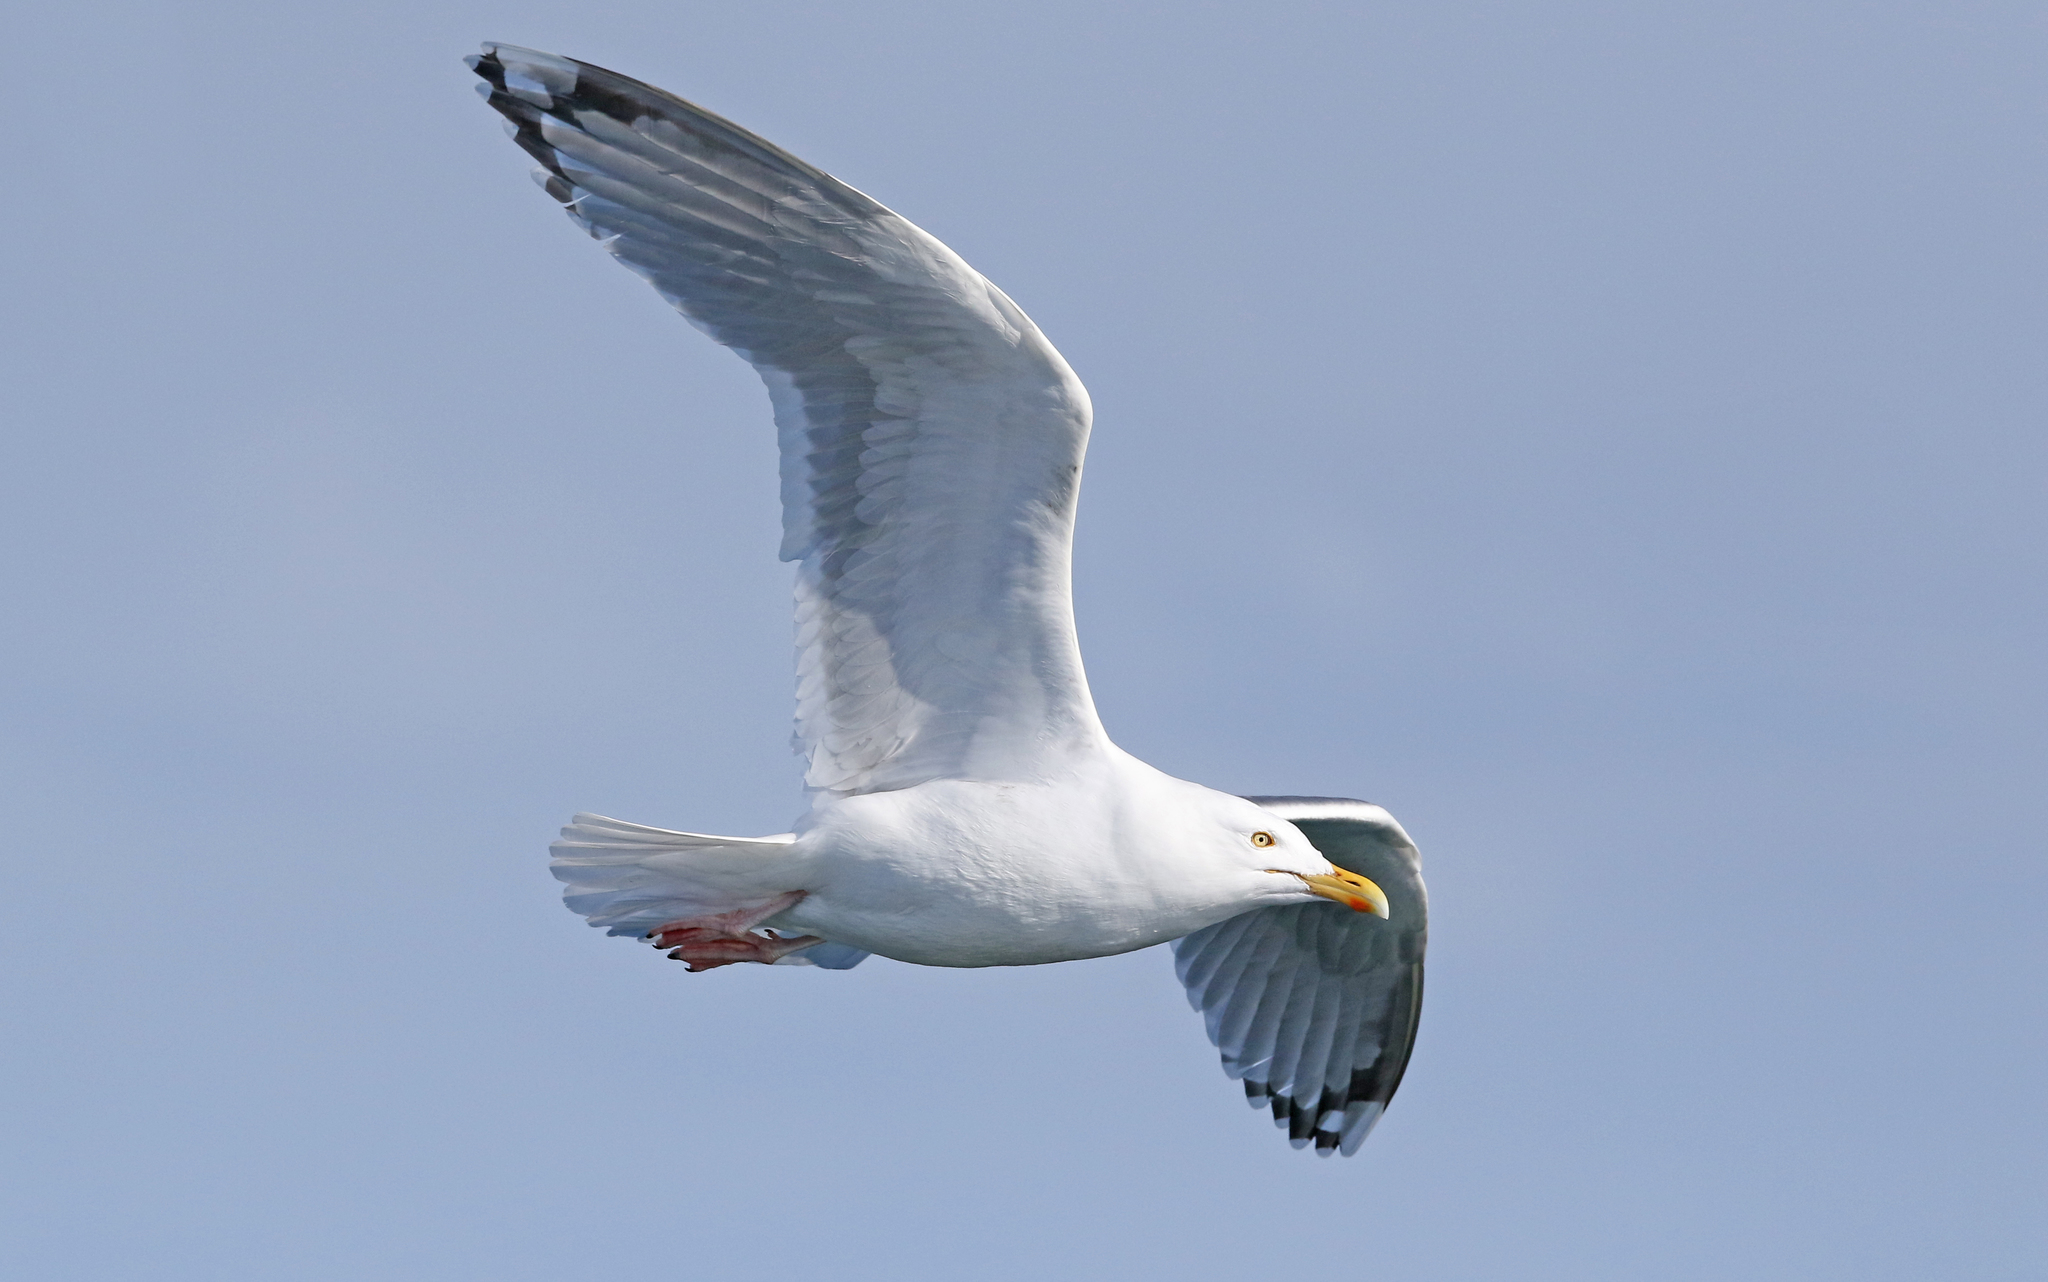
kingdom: Animalia
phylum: Chordata
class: Aves
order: Charadriiformes
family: Laridae
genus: Larus
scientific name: Larus argentatus
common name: Herring gull
